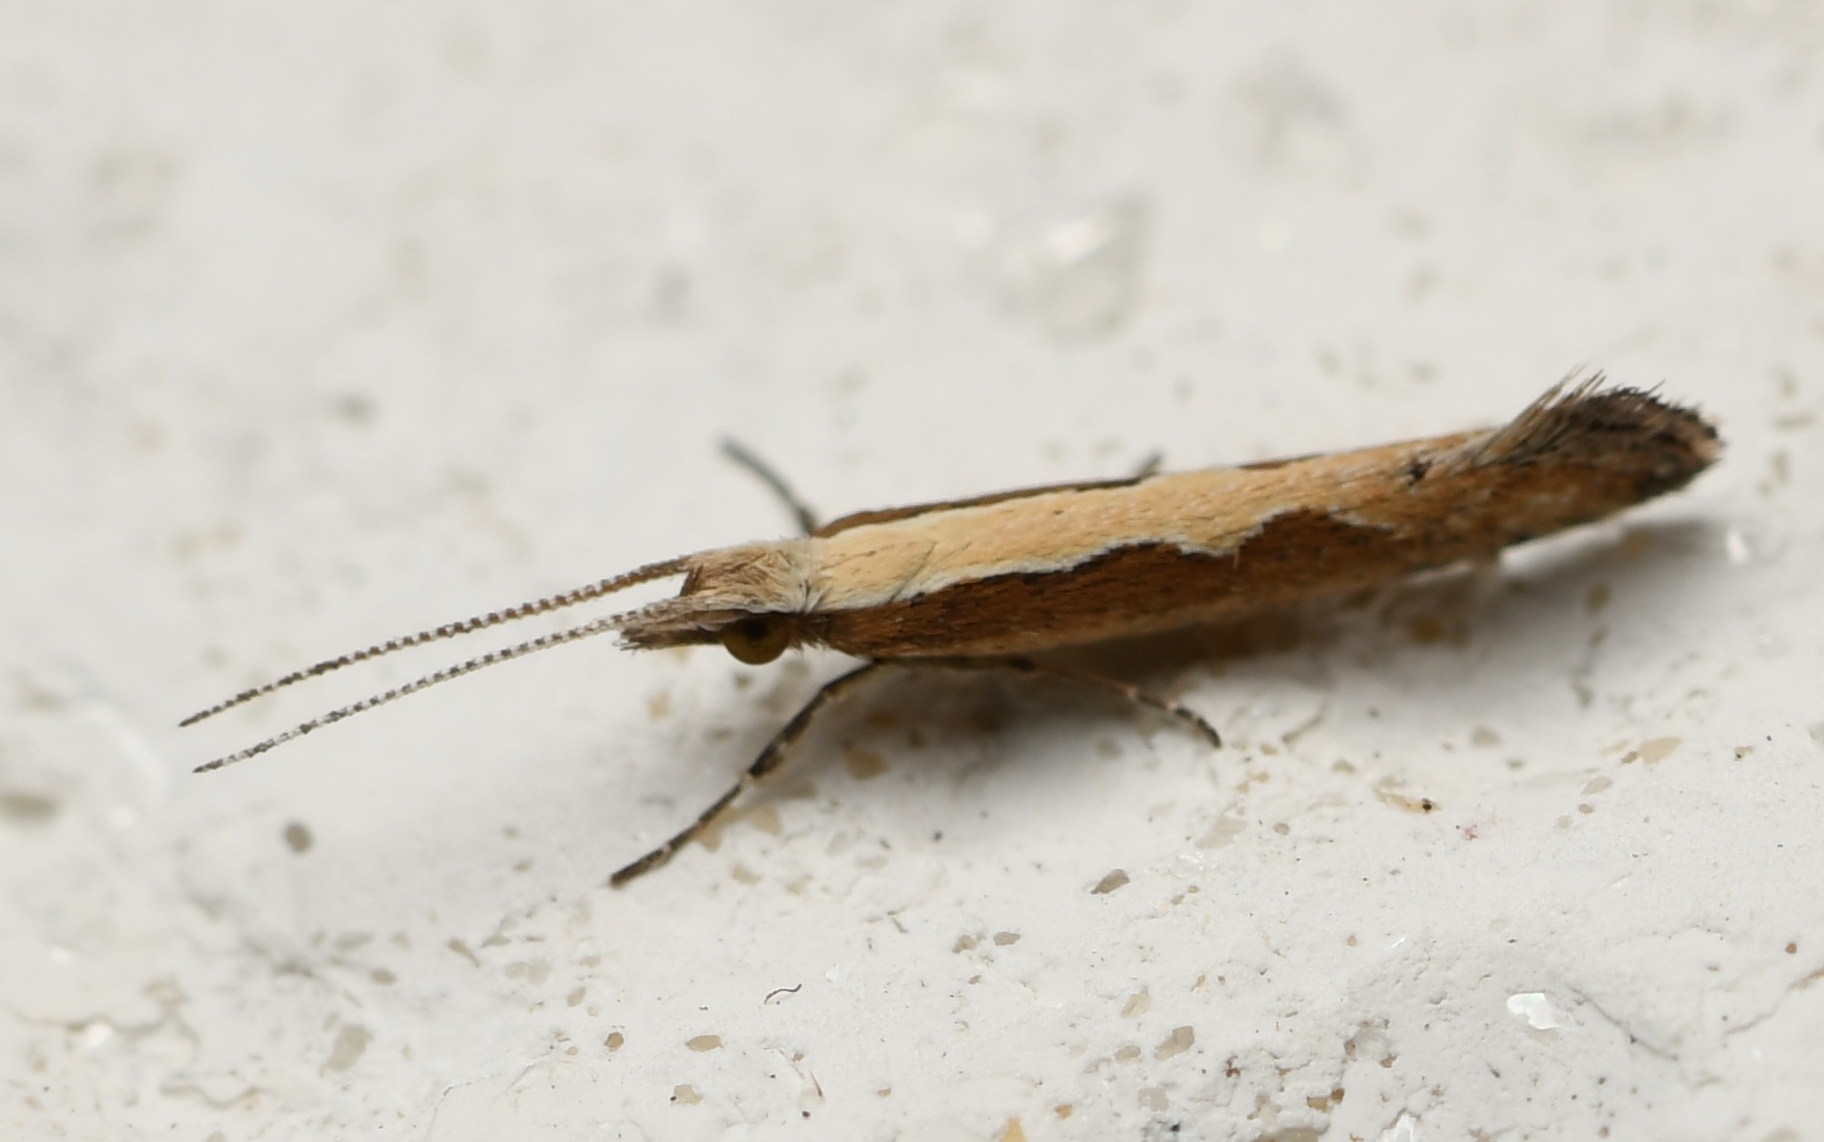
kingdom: Animalia
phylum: Arthropoda
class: Insecta
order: Lepidoptera
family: Plutellidae
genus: Plutella
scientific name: Plutella xylostella
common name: Diamond-back moth
